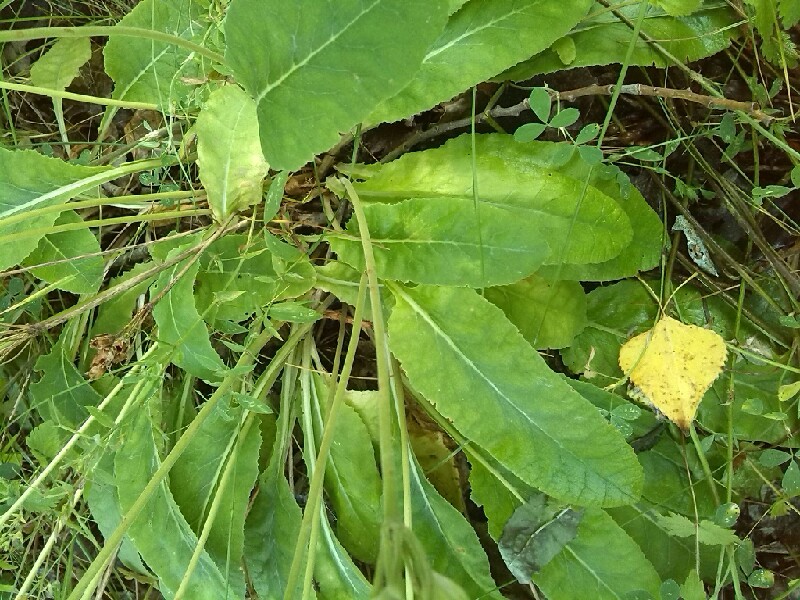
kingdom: Plantae
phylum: Tracheophyta
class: Magnoliopsida
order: Ericales
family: Primulaceae
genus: Primula
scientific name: Primula veris
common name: Cowslip
